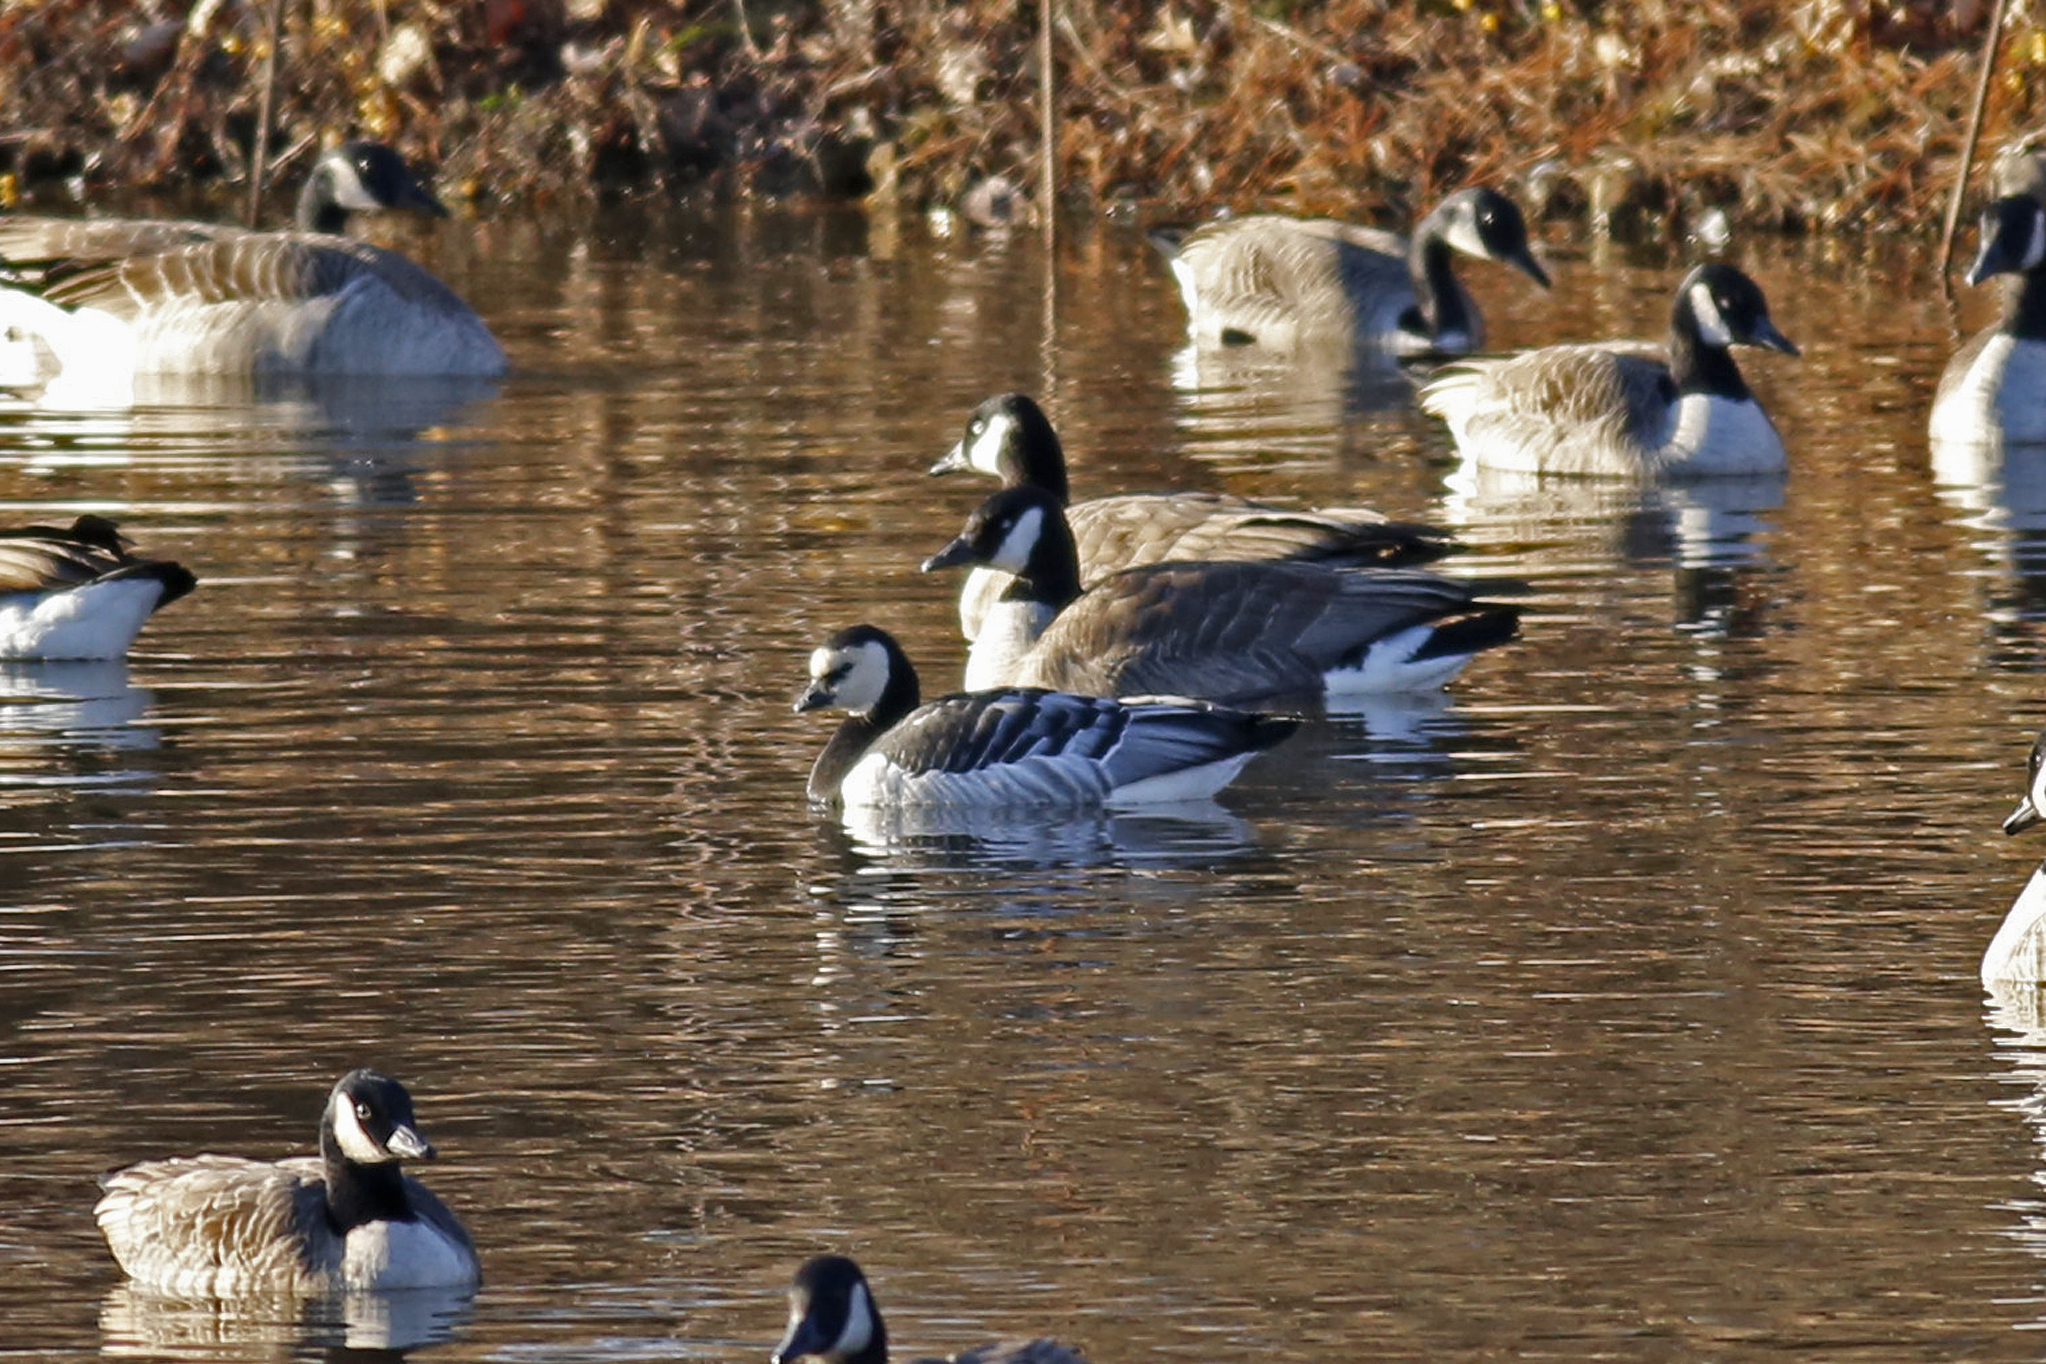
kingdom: Animalia
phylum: Chordata
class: Aves
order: Anseriformes
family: Anatidae
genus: Branta
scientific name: Branta leucopsis
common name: Barnacle goose
